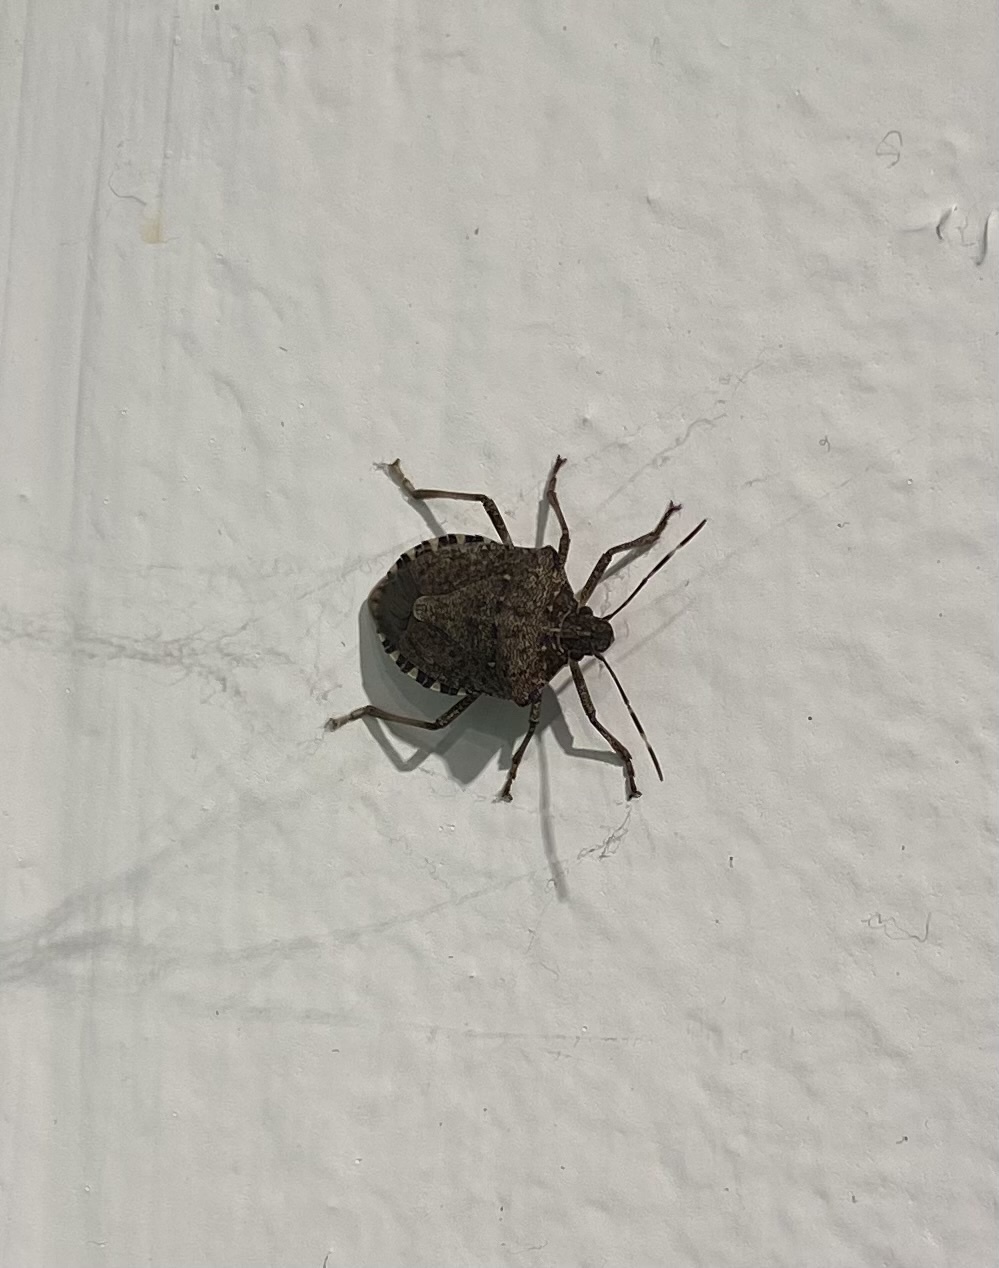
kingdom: Animalia
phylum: Arthropoda
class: Insecta
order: Hemiptera
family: Pentatomidae
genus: Halyomorpha
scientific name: Halyomorpha halys
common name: Brown marmorated stink bug
